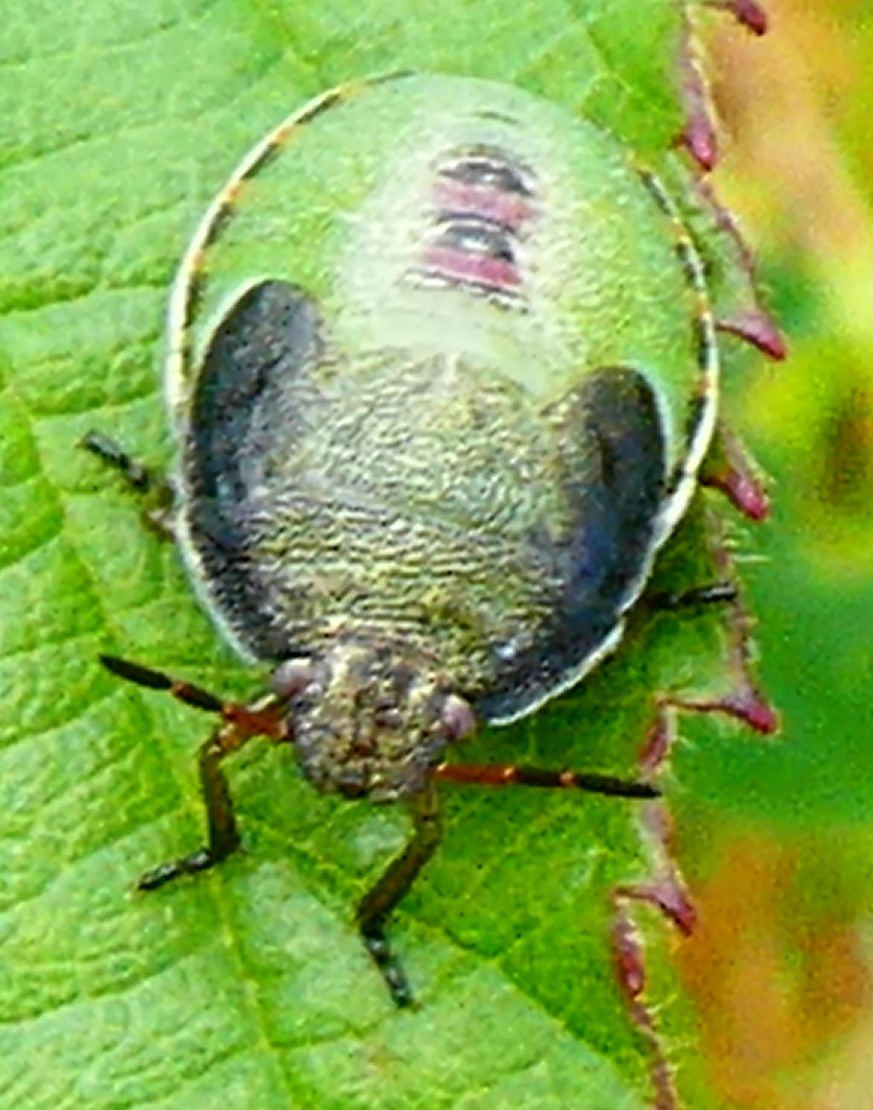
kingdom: Animalia
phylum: Arthropoda
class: Insecta
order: Hemiptera
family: Pentatomidae
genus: Piezodorus
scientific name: Piezodorus lituratus
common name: Stink bug
